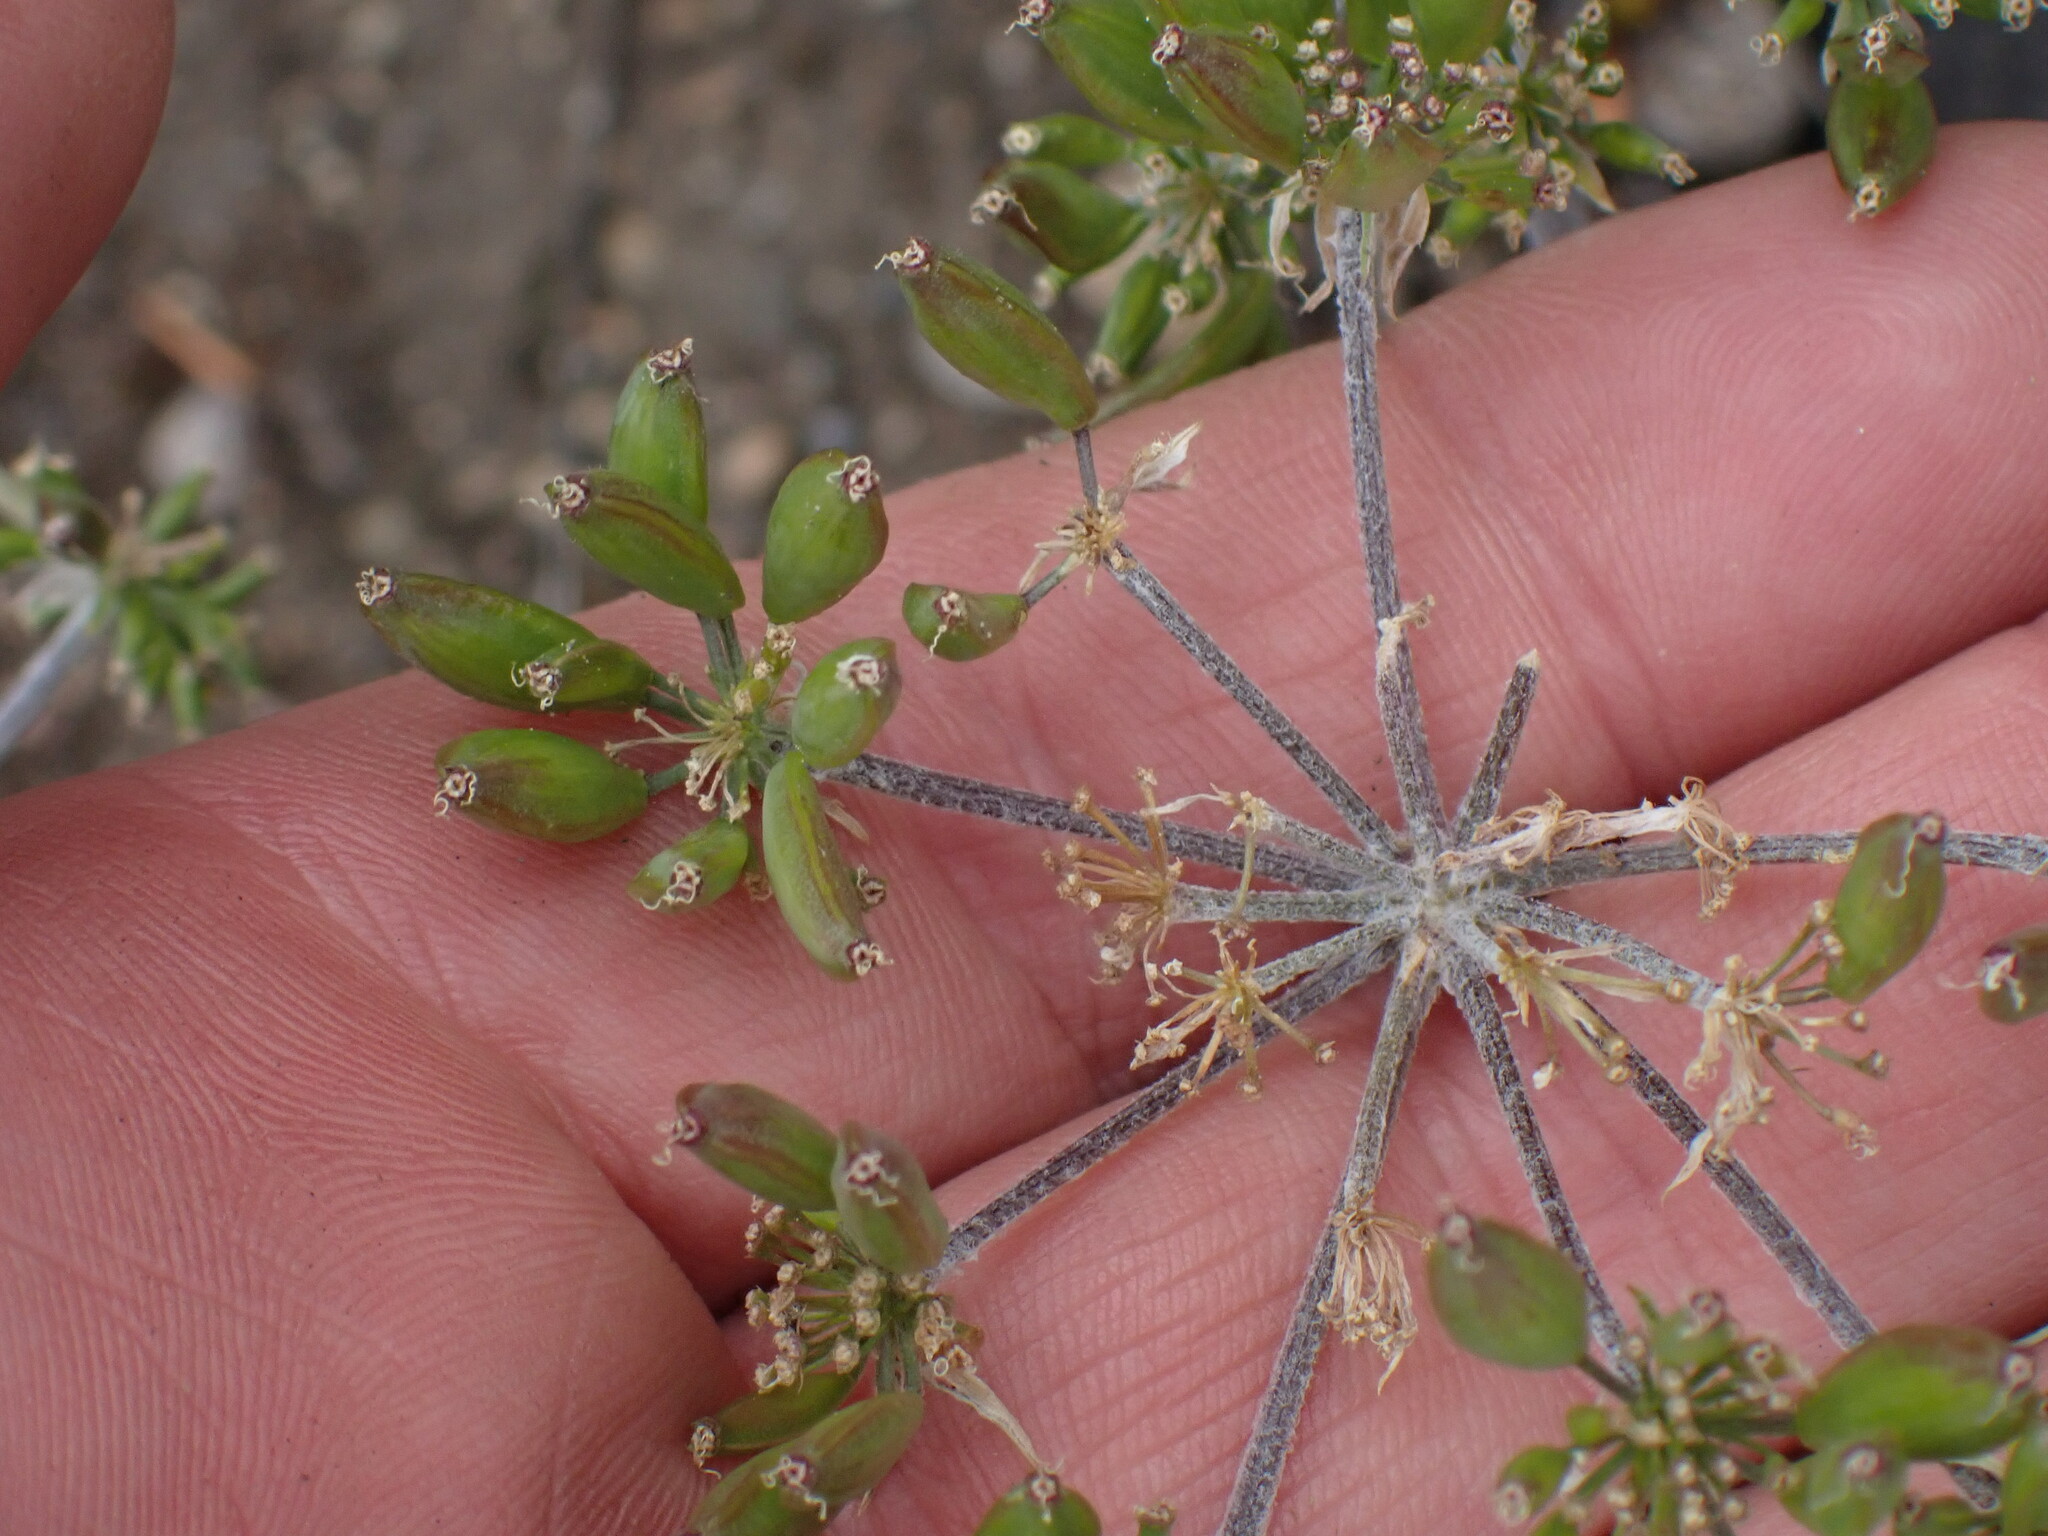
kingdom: Plantae
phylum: Tracheophyta
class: Magnoliopsida
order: Apiales
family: Apiaceae
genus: Lomatium
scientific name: Lomatium macrocarpum
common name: Big-seed biscuitroot
